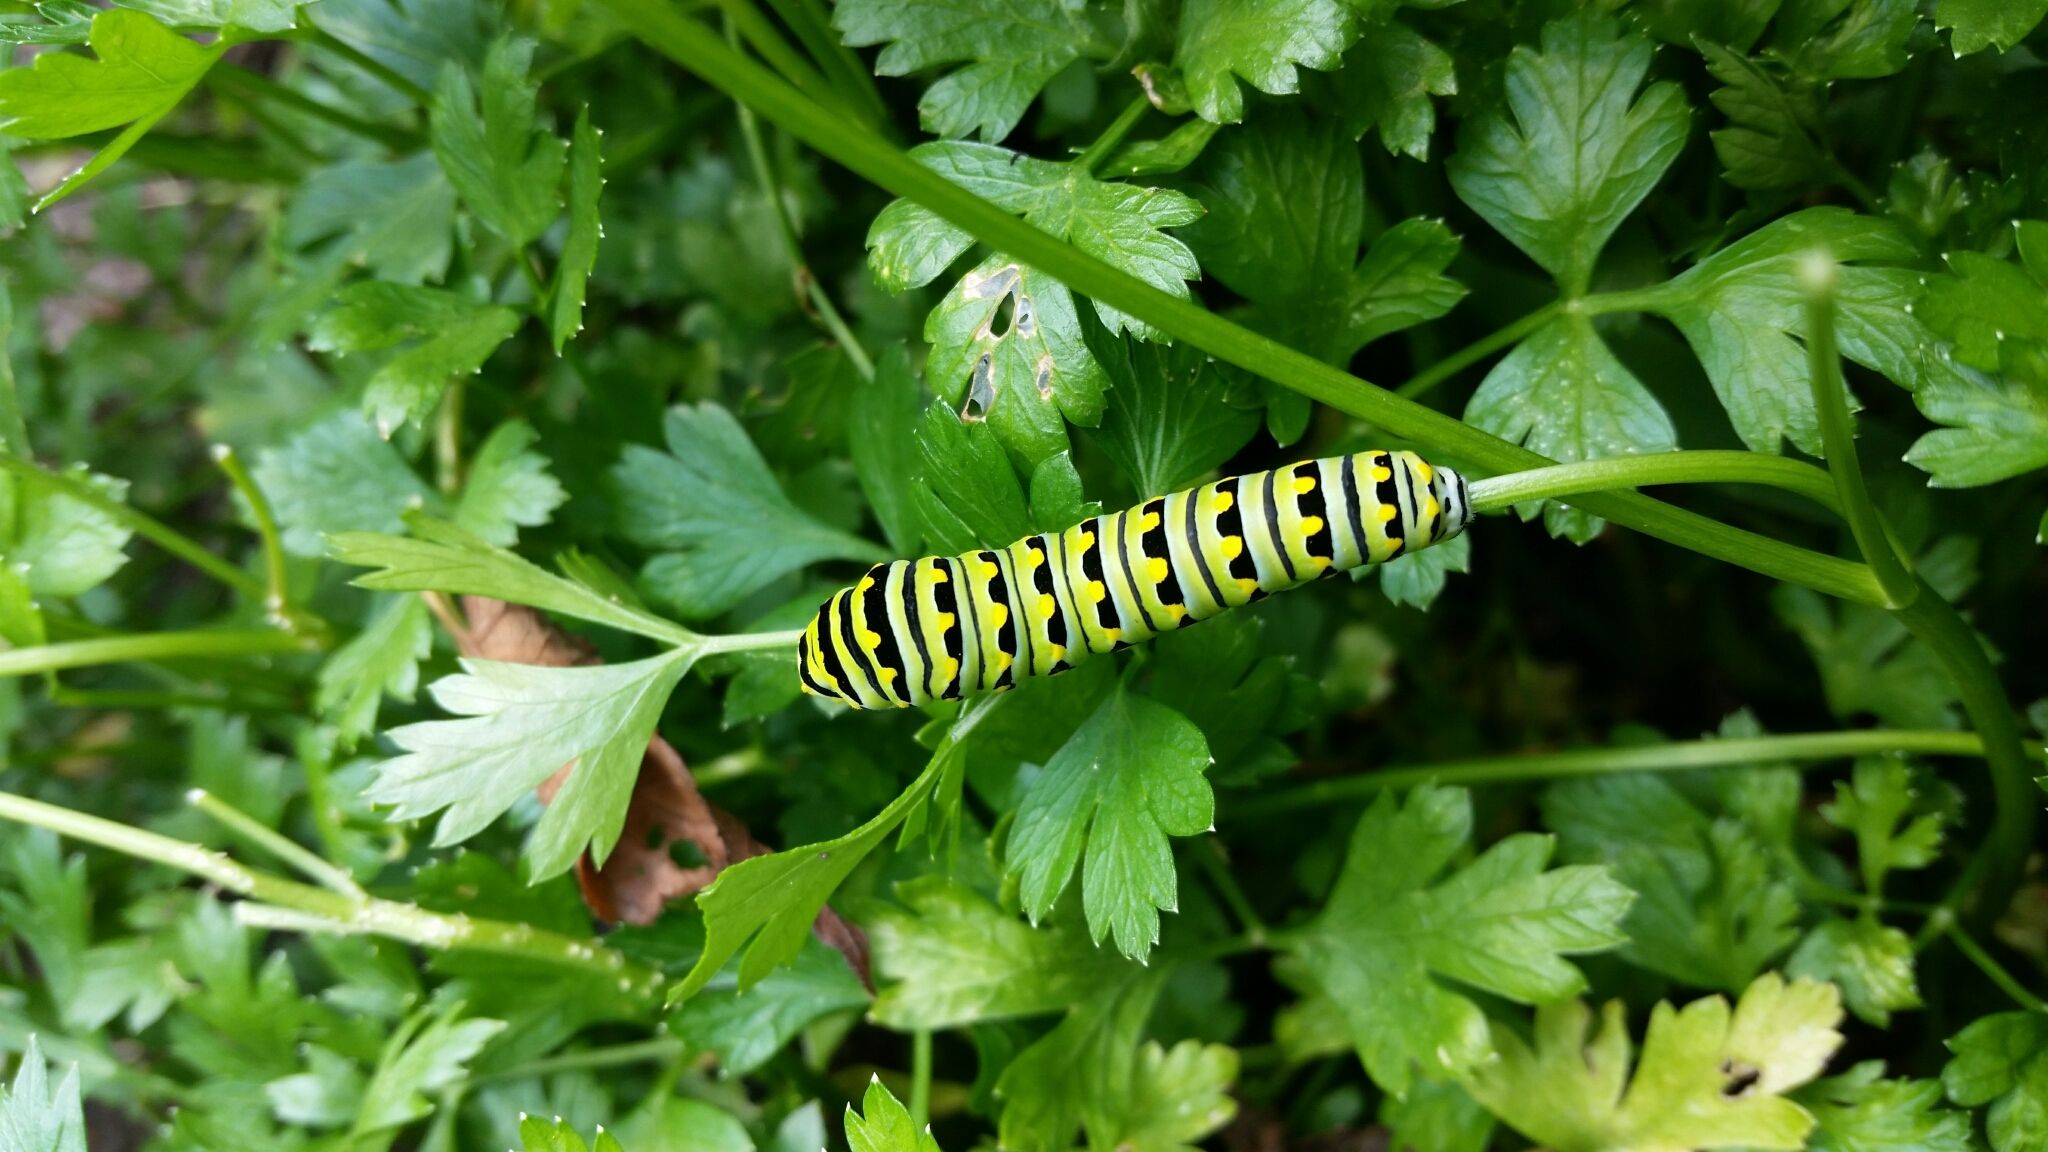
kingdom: Animalia
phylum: Arthropoda
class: Insecta
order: Lepidoptera
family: Papilionidae
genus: Papilio
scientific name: Papilio polyxenes
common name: Black swallowtail
